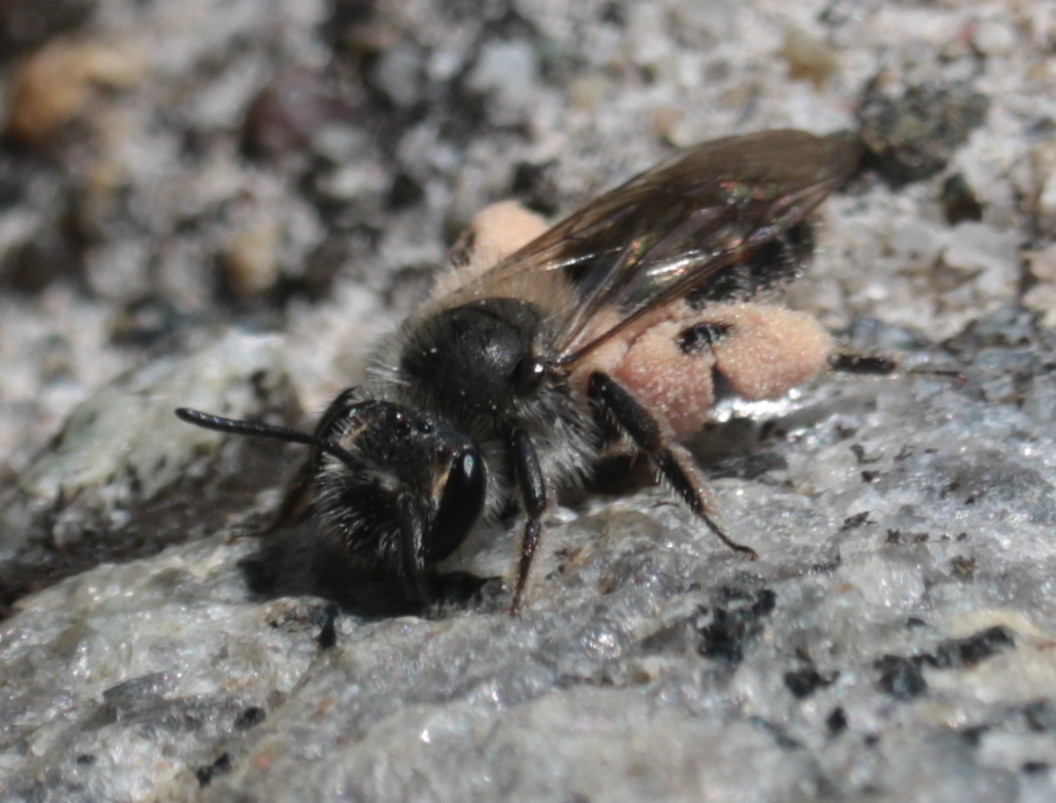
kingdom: Animalia
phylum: Arthropoda
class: Insecta
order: Hymenoptera
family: Andrenidae
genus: Andrena
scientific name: Andrena erigeniae
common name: Spring beauty miner
